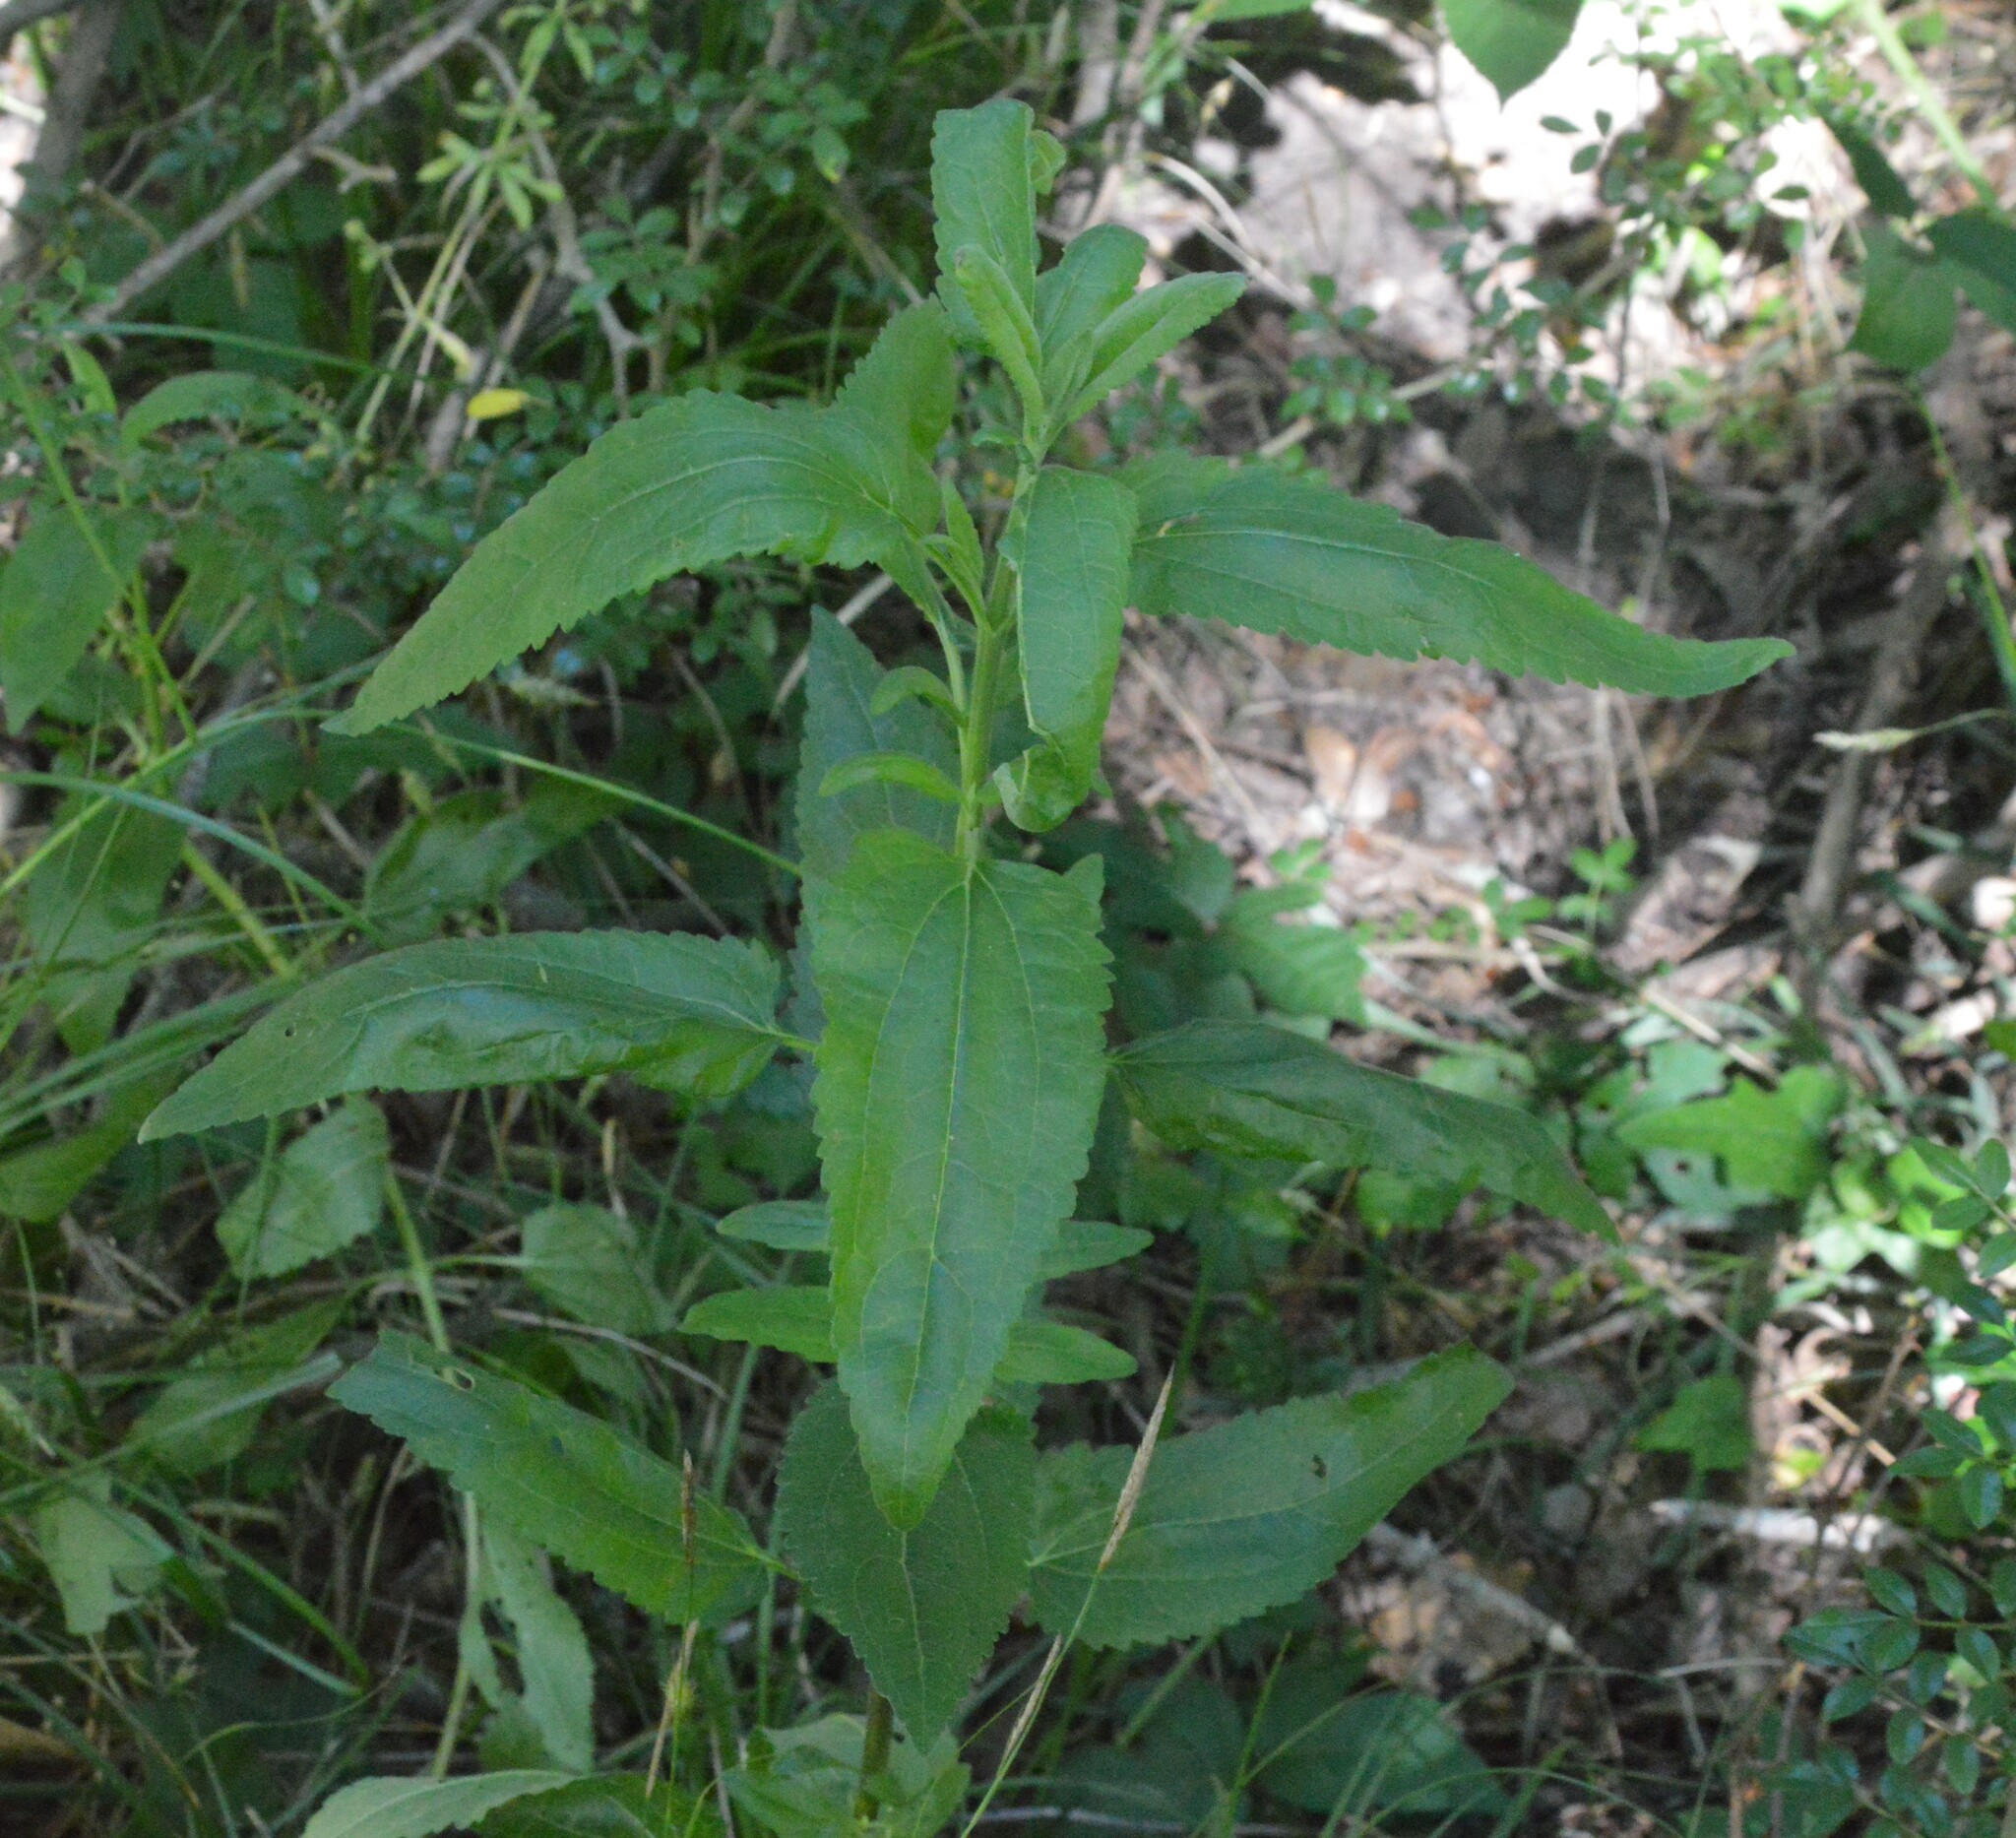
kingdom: Plantae
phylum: Tracheophyta
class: Magnoliopsida
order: Asterales
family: Asteraceae
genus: Eupatorium
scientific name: Eupatorium serotinum
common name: Late boneset
